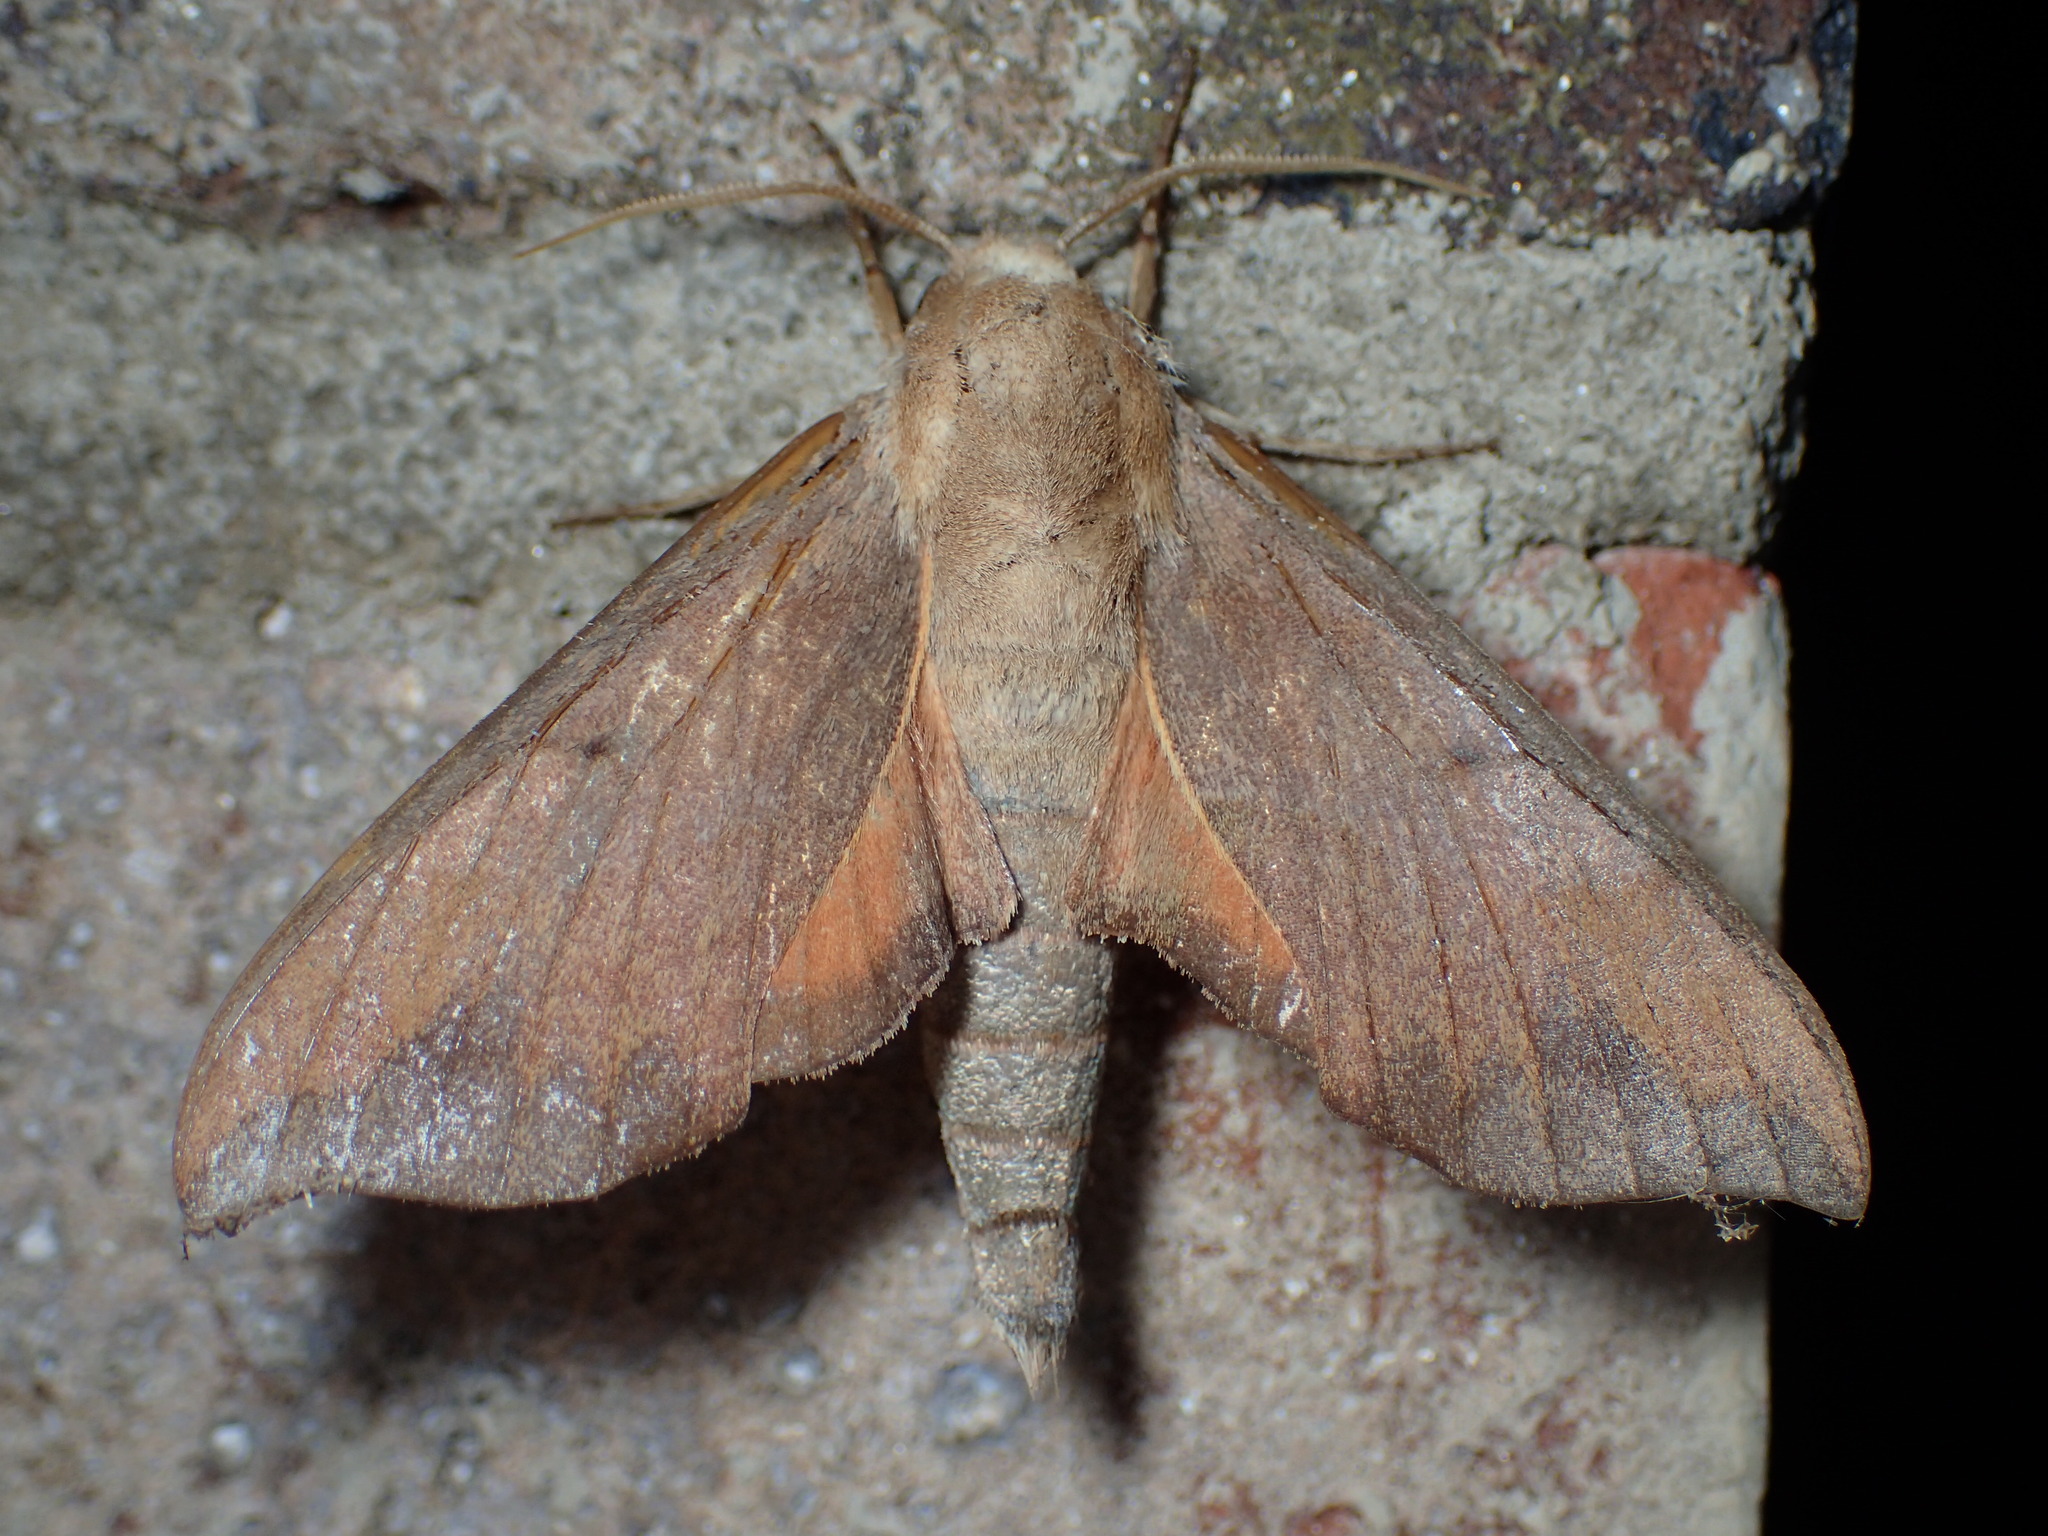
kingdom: Animalia
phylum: Arthropoda
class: Insecta
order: Lepidoptera
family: Sphingidae
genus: Darapsa
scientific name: Darapsa myron
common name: Hog sphinx
